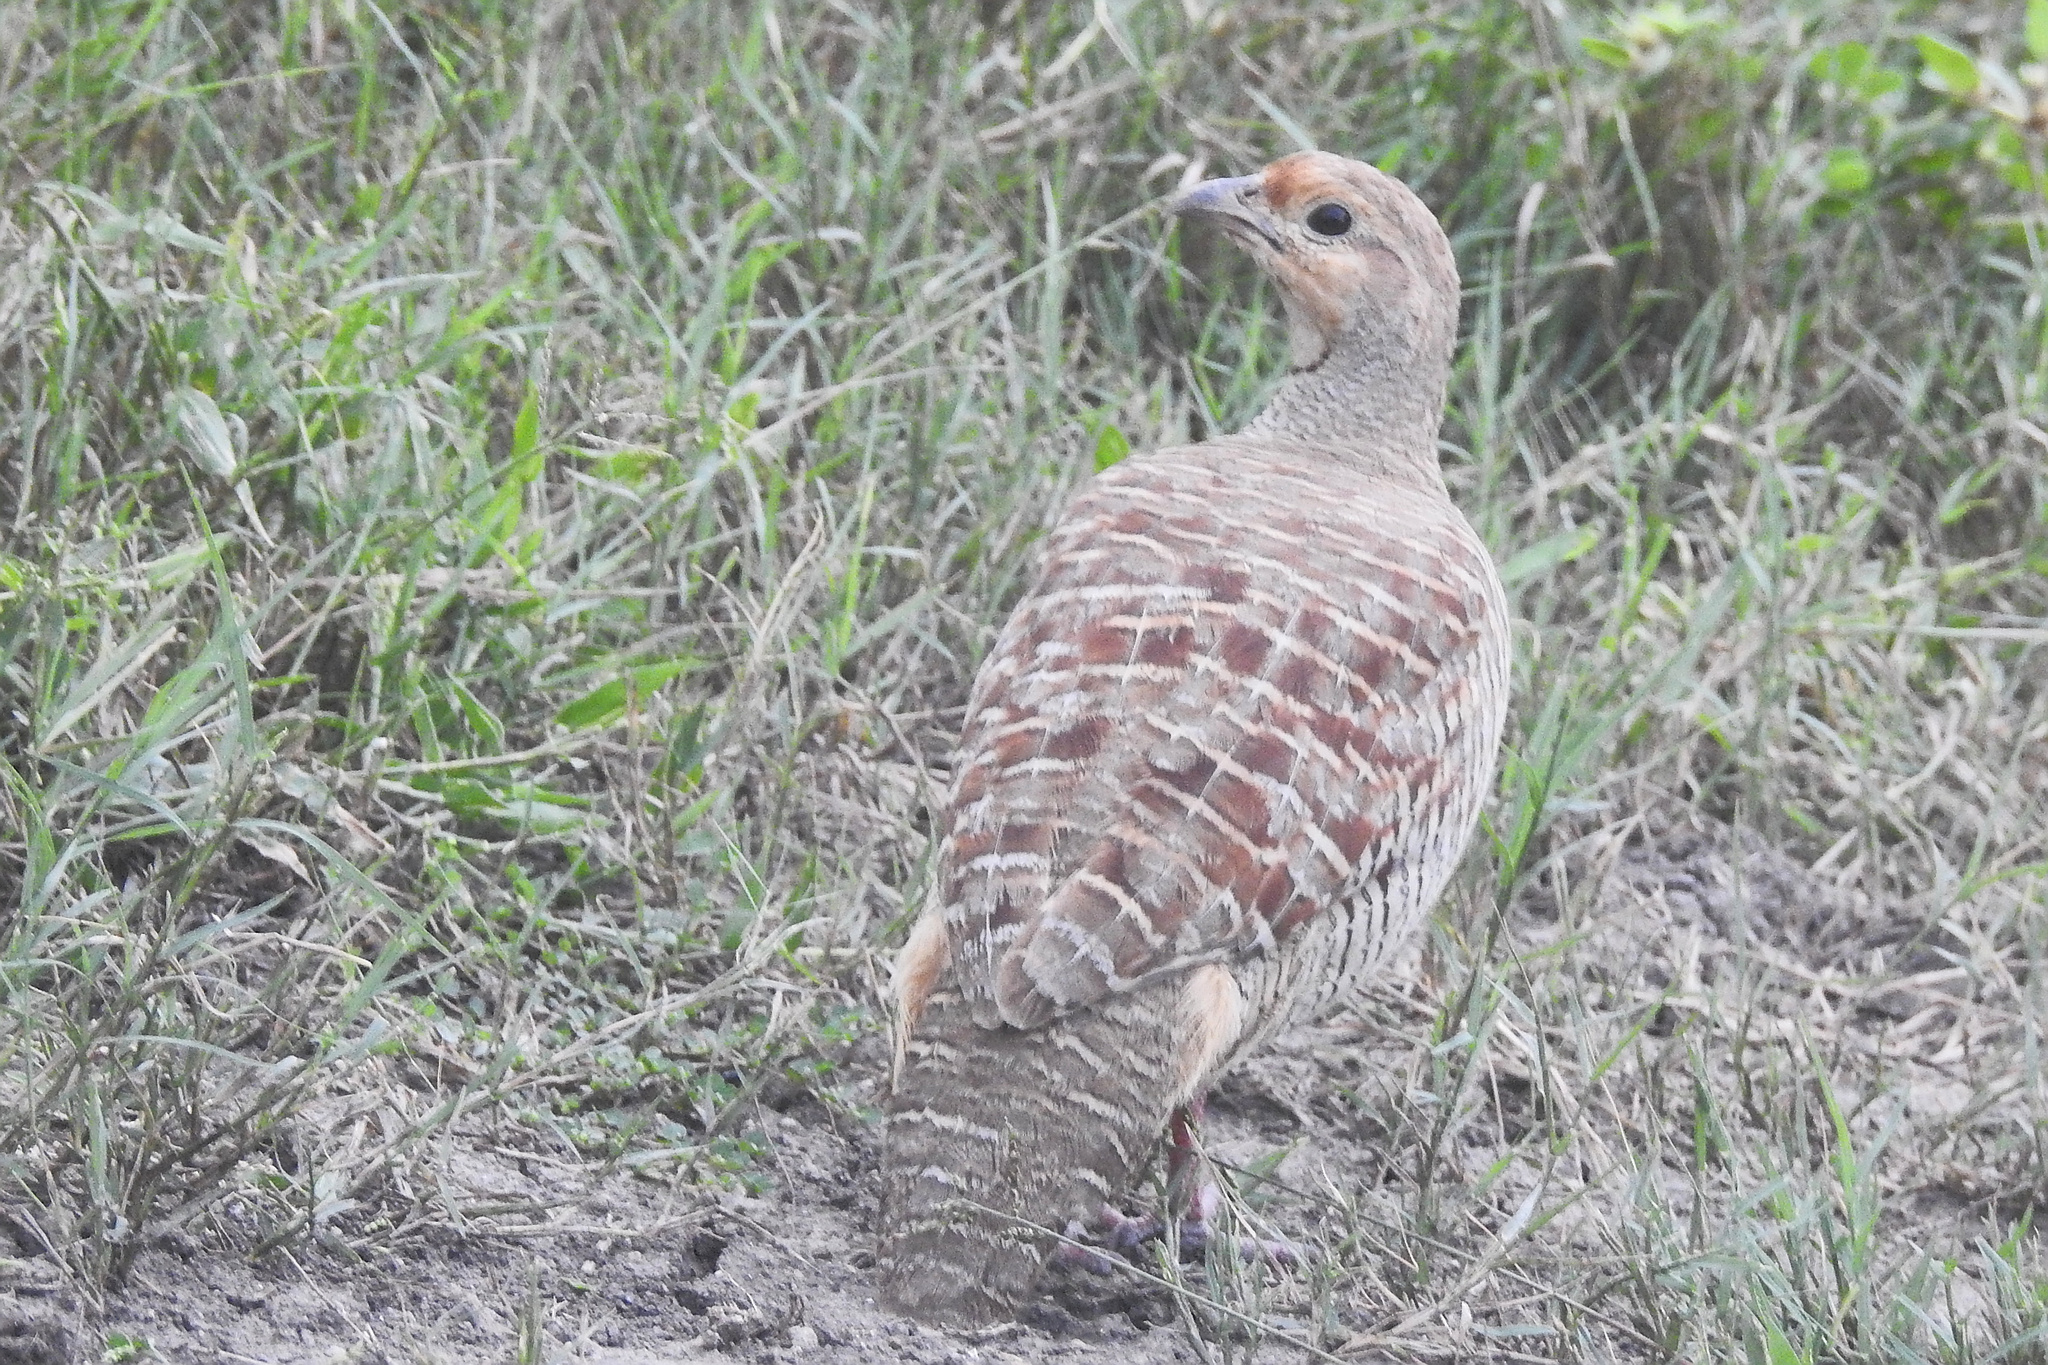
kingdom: Animalia
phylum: Chordata
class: Aves
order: Galliformes
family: Phasianidae
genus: Ortygornis
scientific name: Ortygornis pondicerianus
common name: Grey francolin
